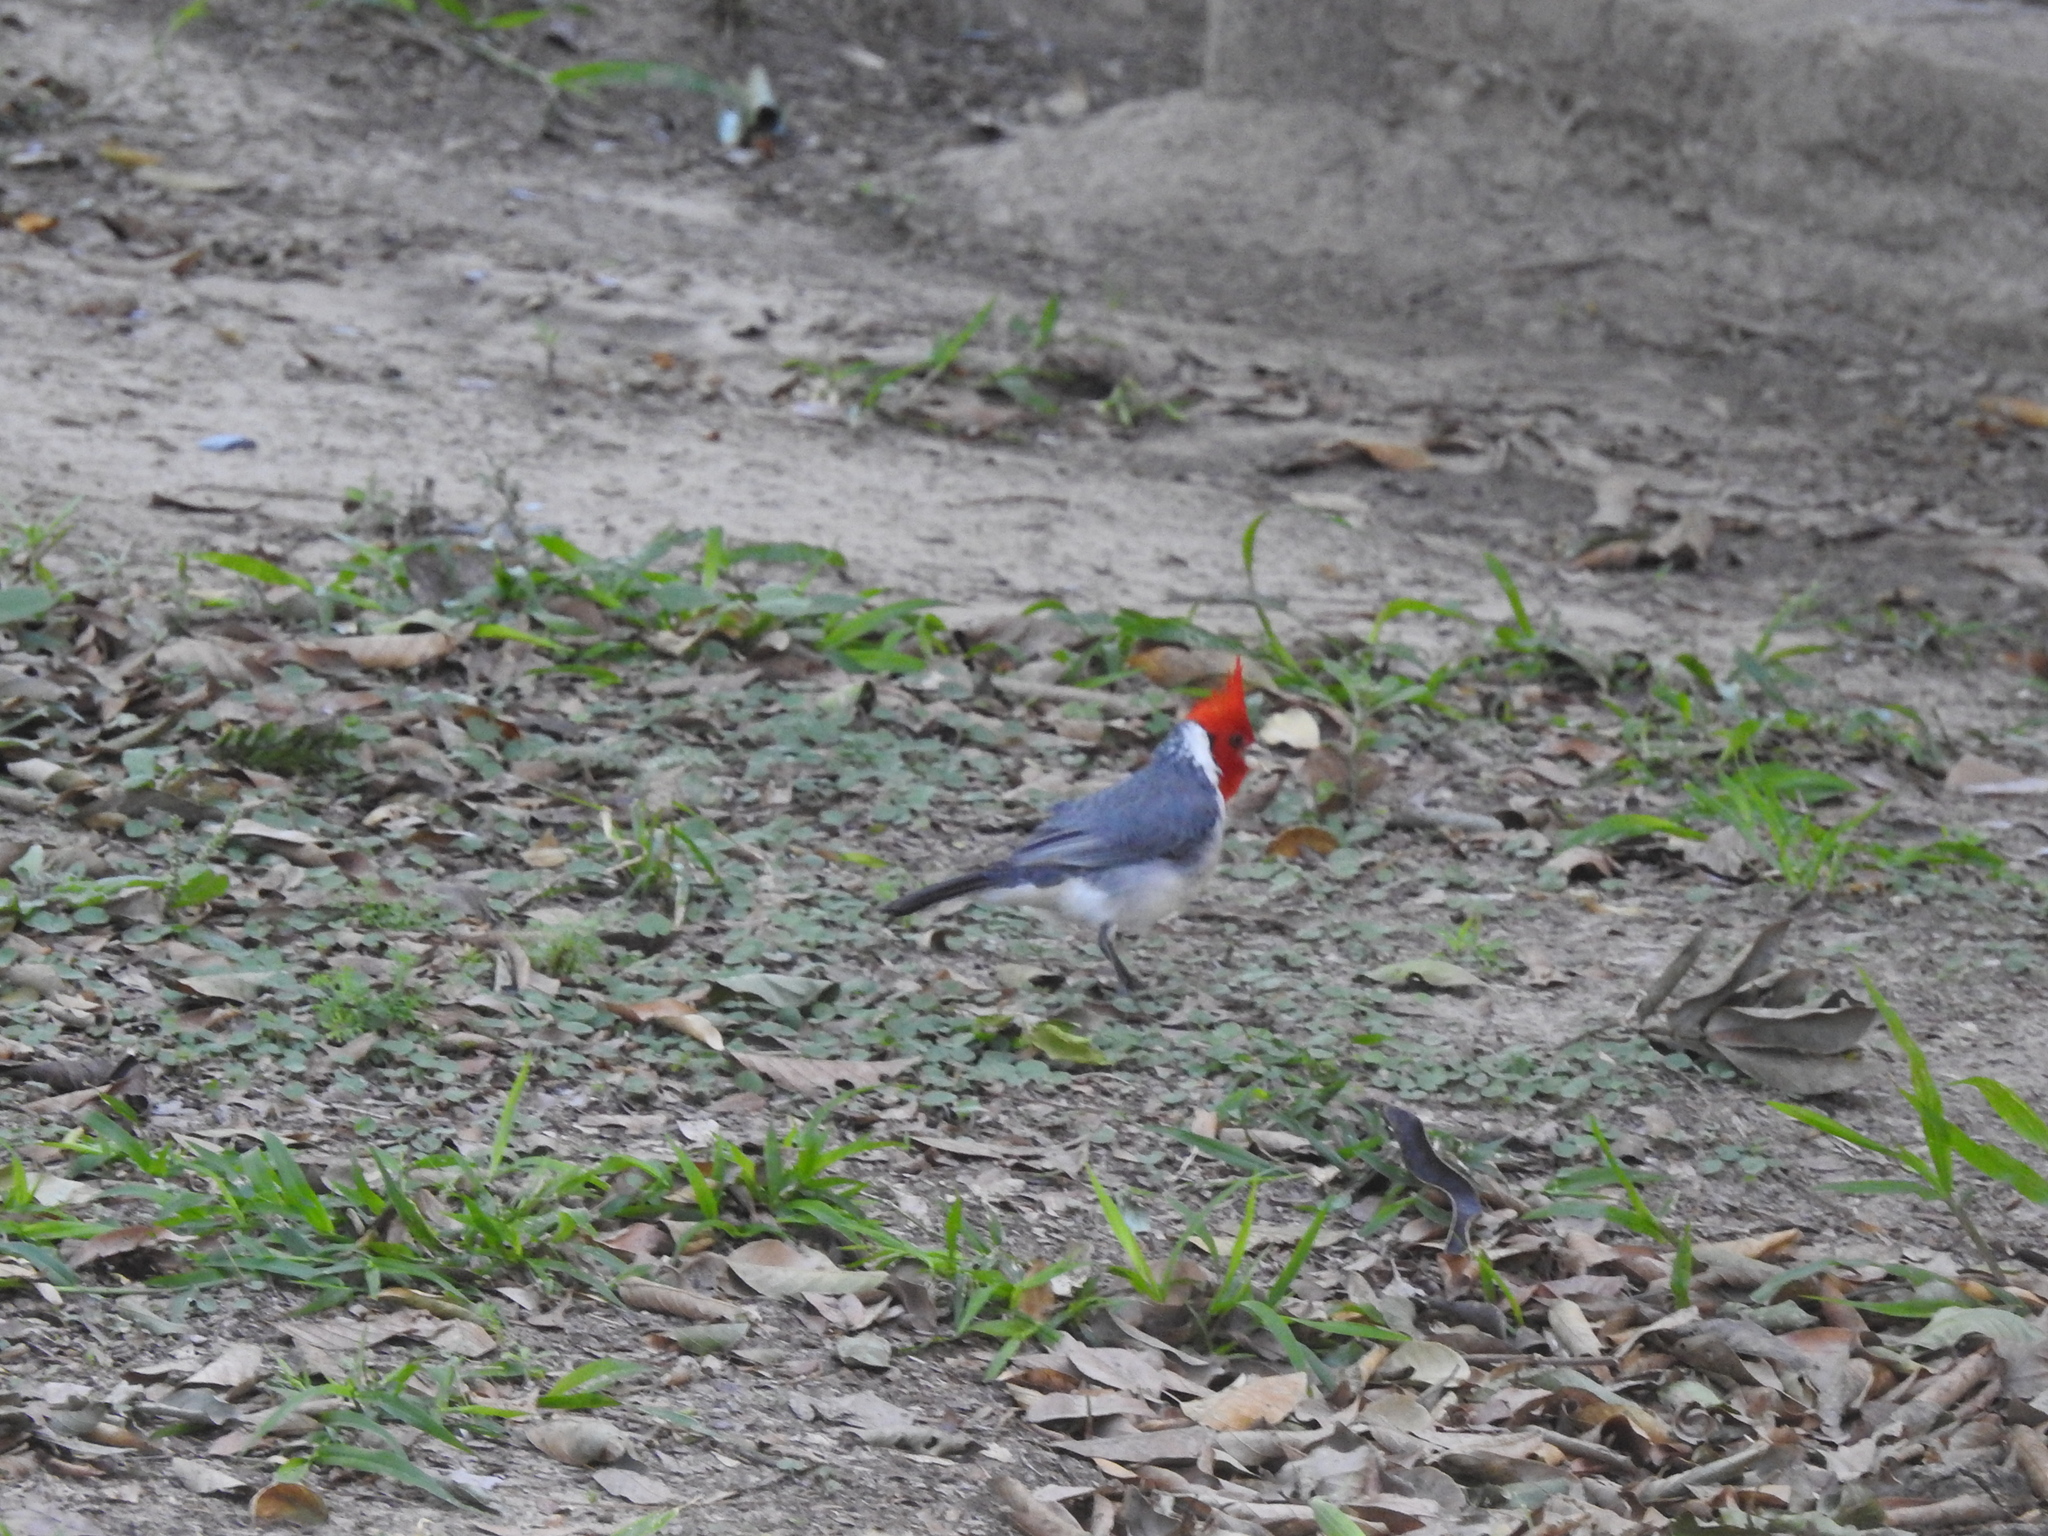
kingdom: Animalia
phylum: Chordata
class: Aves
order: Passeriformes
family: Thraupidae
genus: Paroaria
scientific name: Paroaria coronata
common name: Red-crested cardinal
